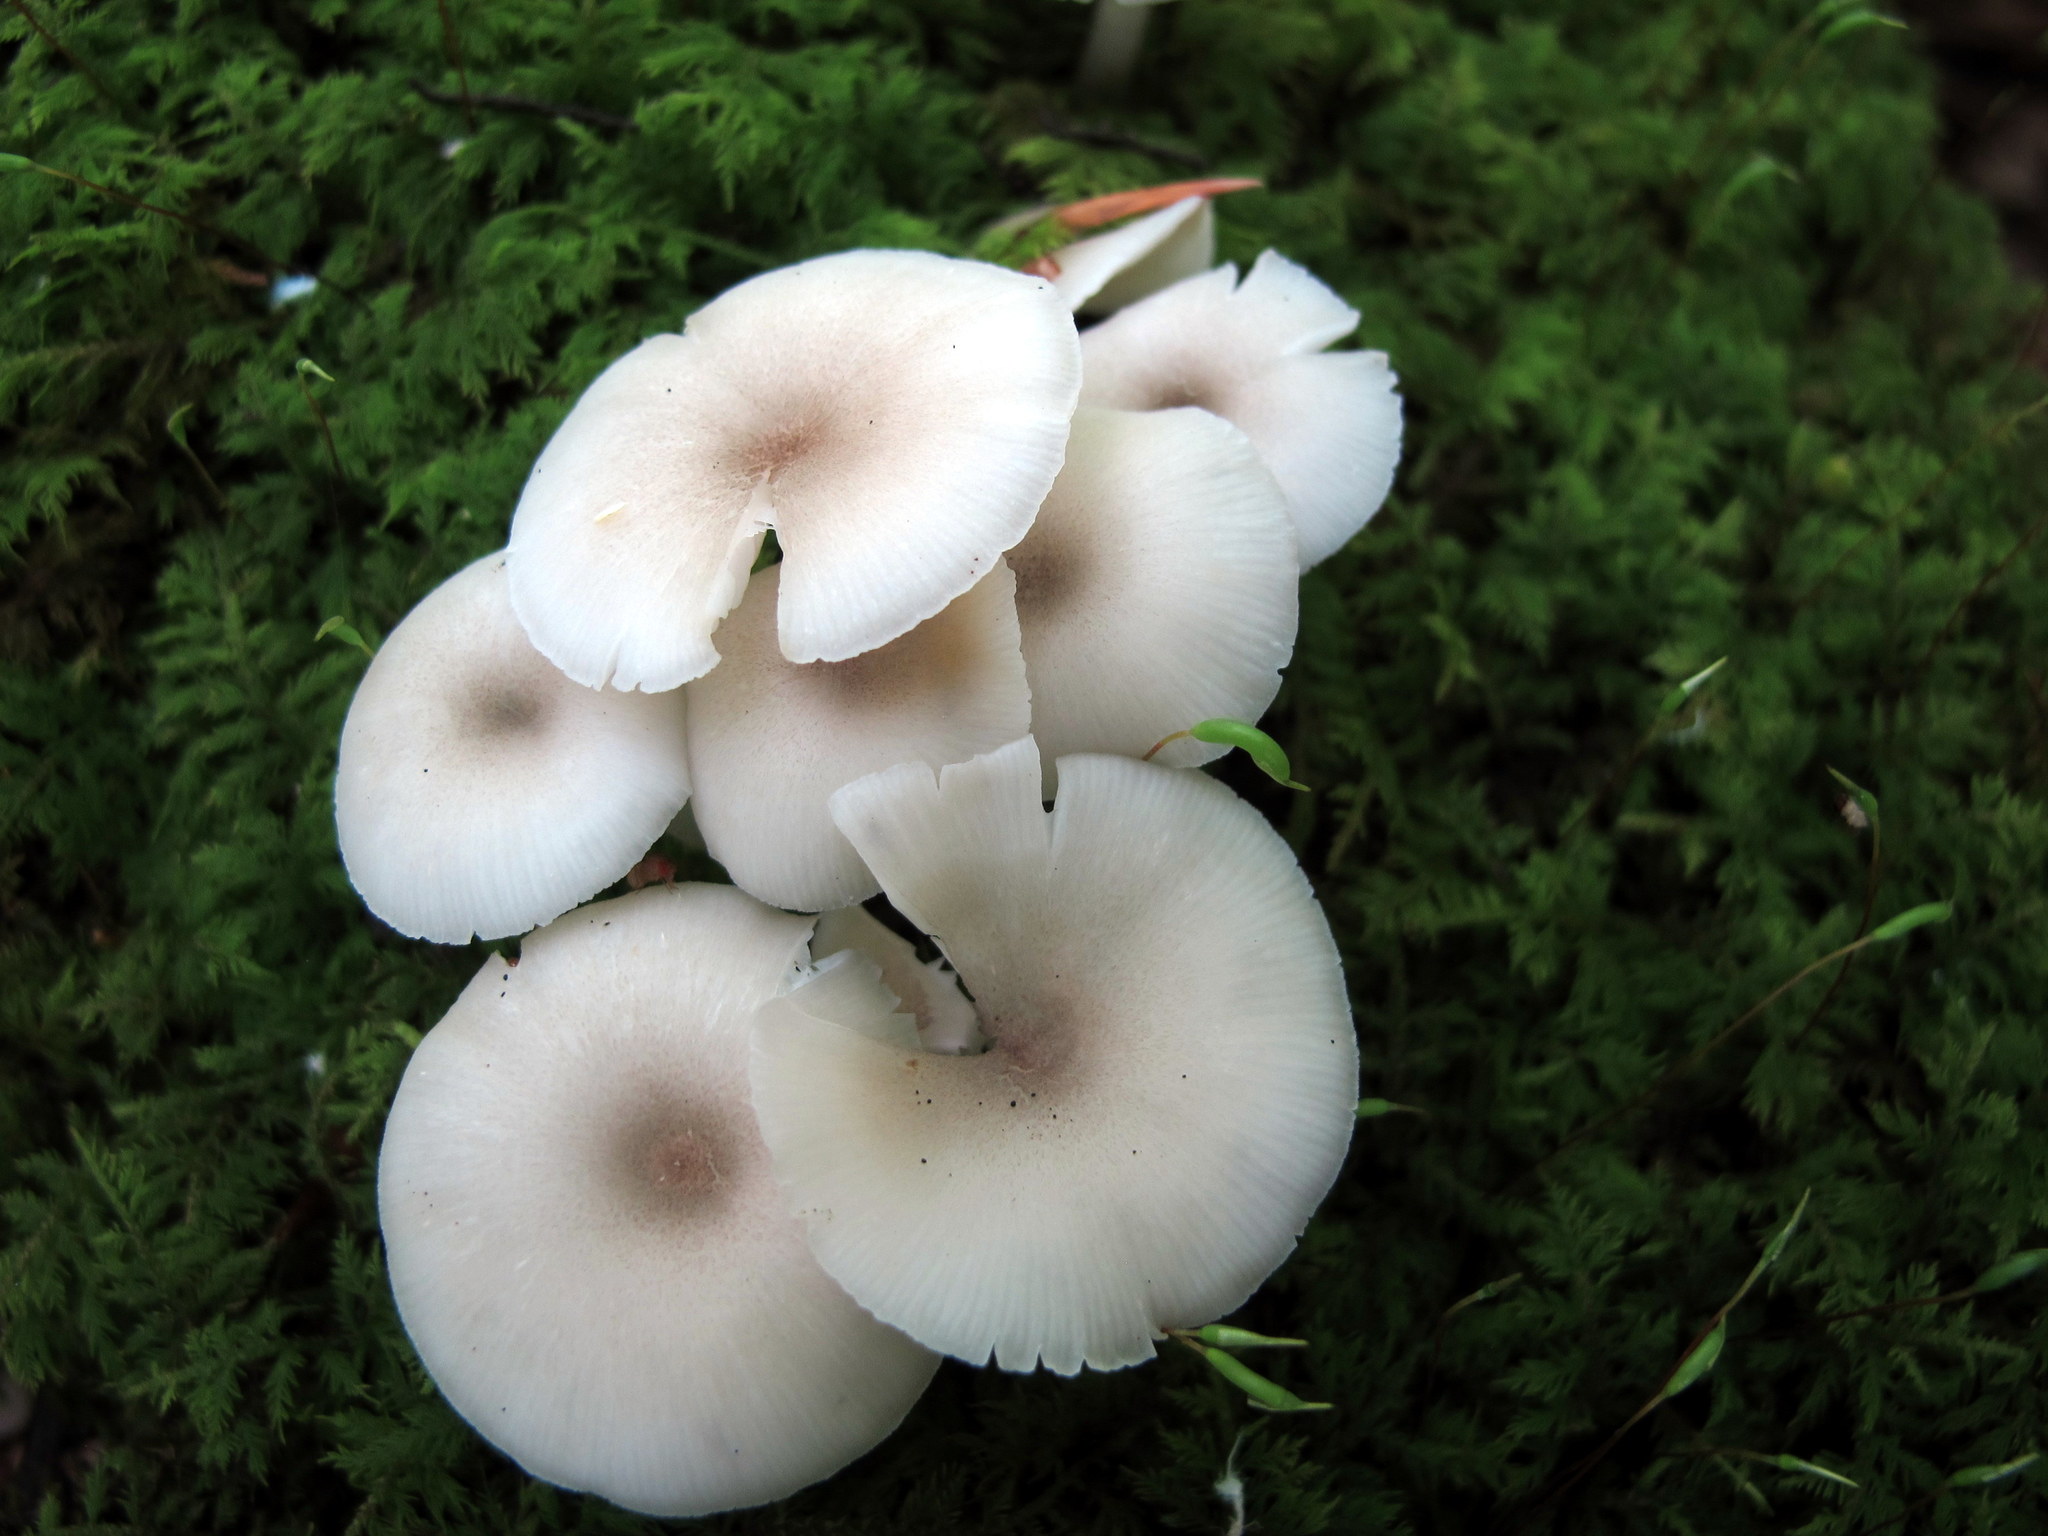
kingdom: Fungi
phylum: Basidiomycota
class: Agaricomycetes
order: Agaricales
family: Marasmiaceae
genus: Clitocybula
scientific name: Clitocybula abundans
